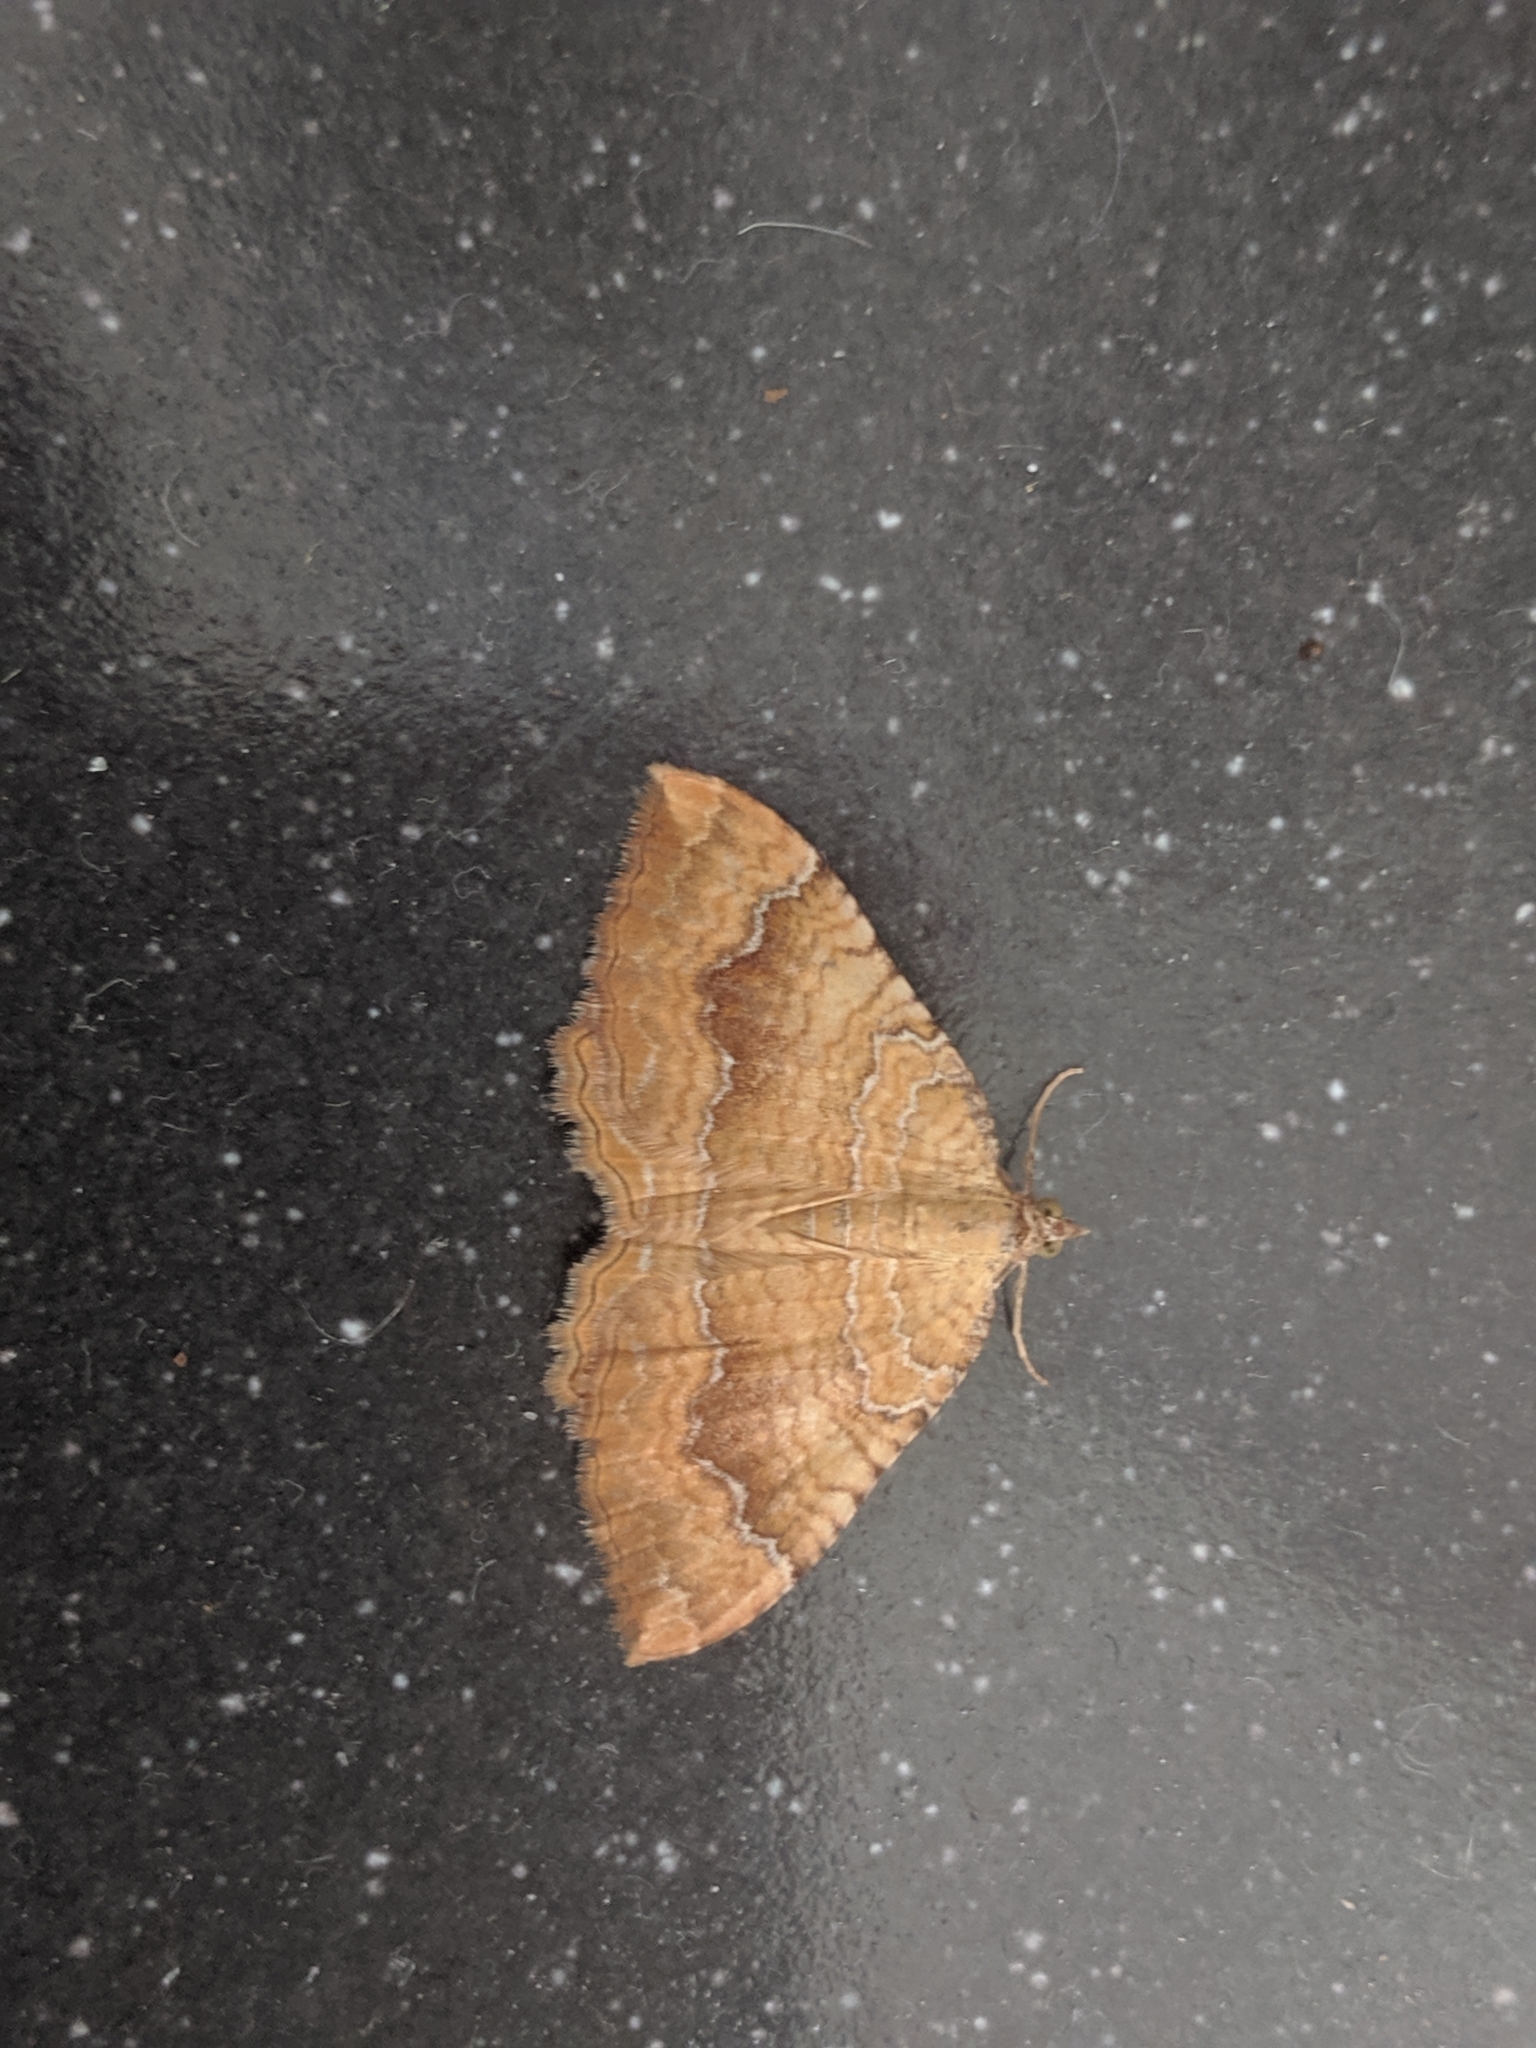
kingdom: Animalia
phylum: Arthropoda
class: Insecta
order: Lepidoptera
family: Geometridae
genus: Camptogramma
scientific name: Camptogramma bilineata
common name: Yellow shell
